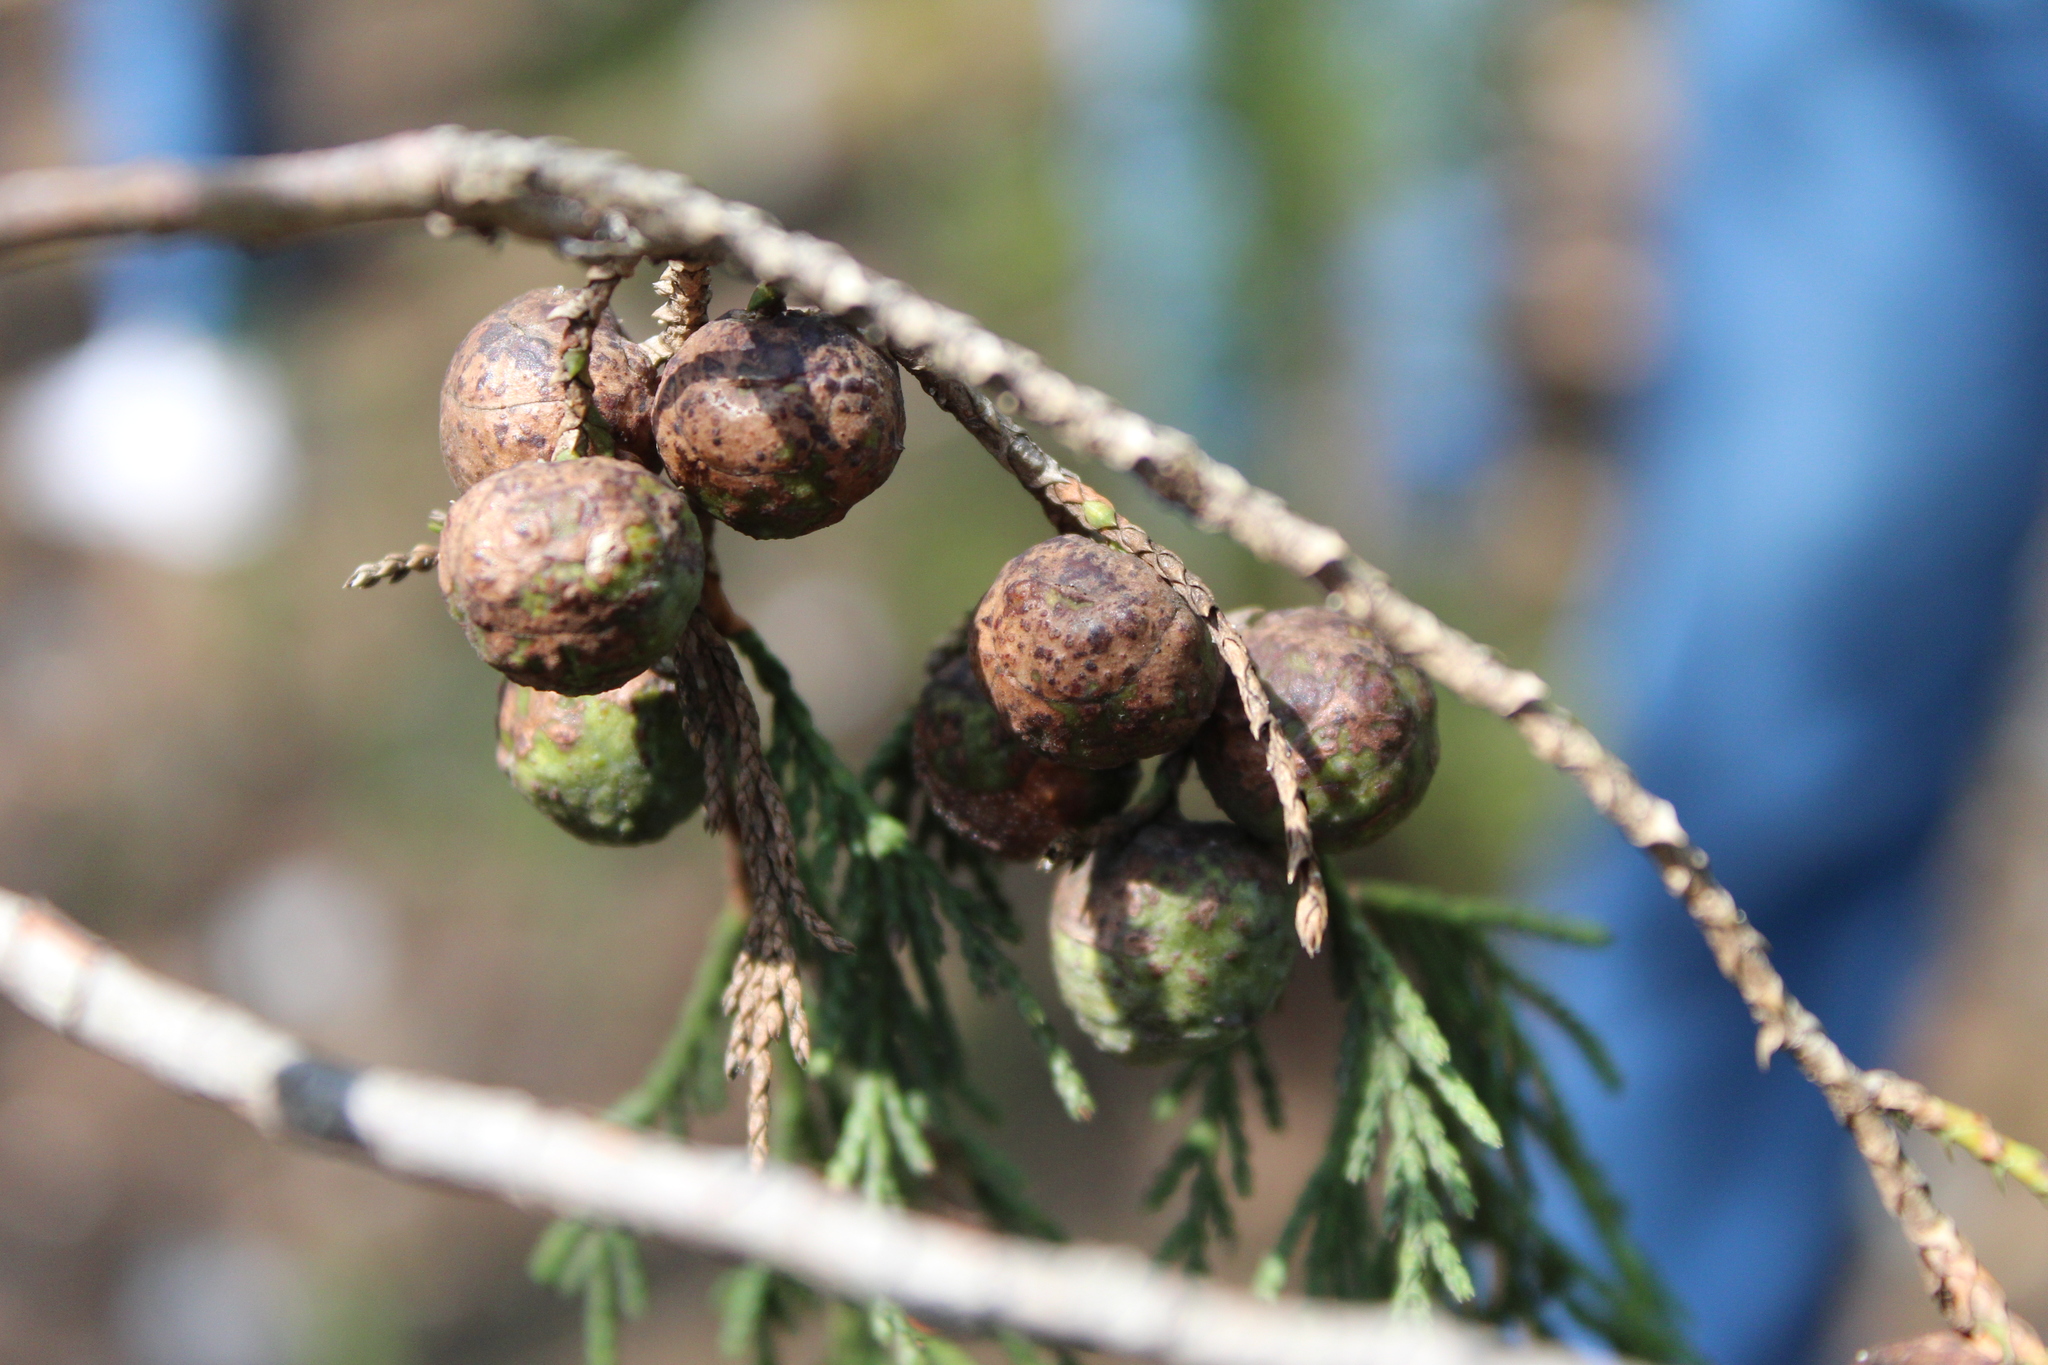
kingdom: Plantae
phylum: Tracheophyta
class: Pinopsida
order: Pinales
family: Cupressaceae
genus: Juniperus
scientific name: Juniperus flaccida
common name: Drooping juniper
